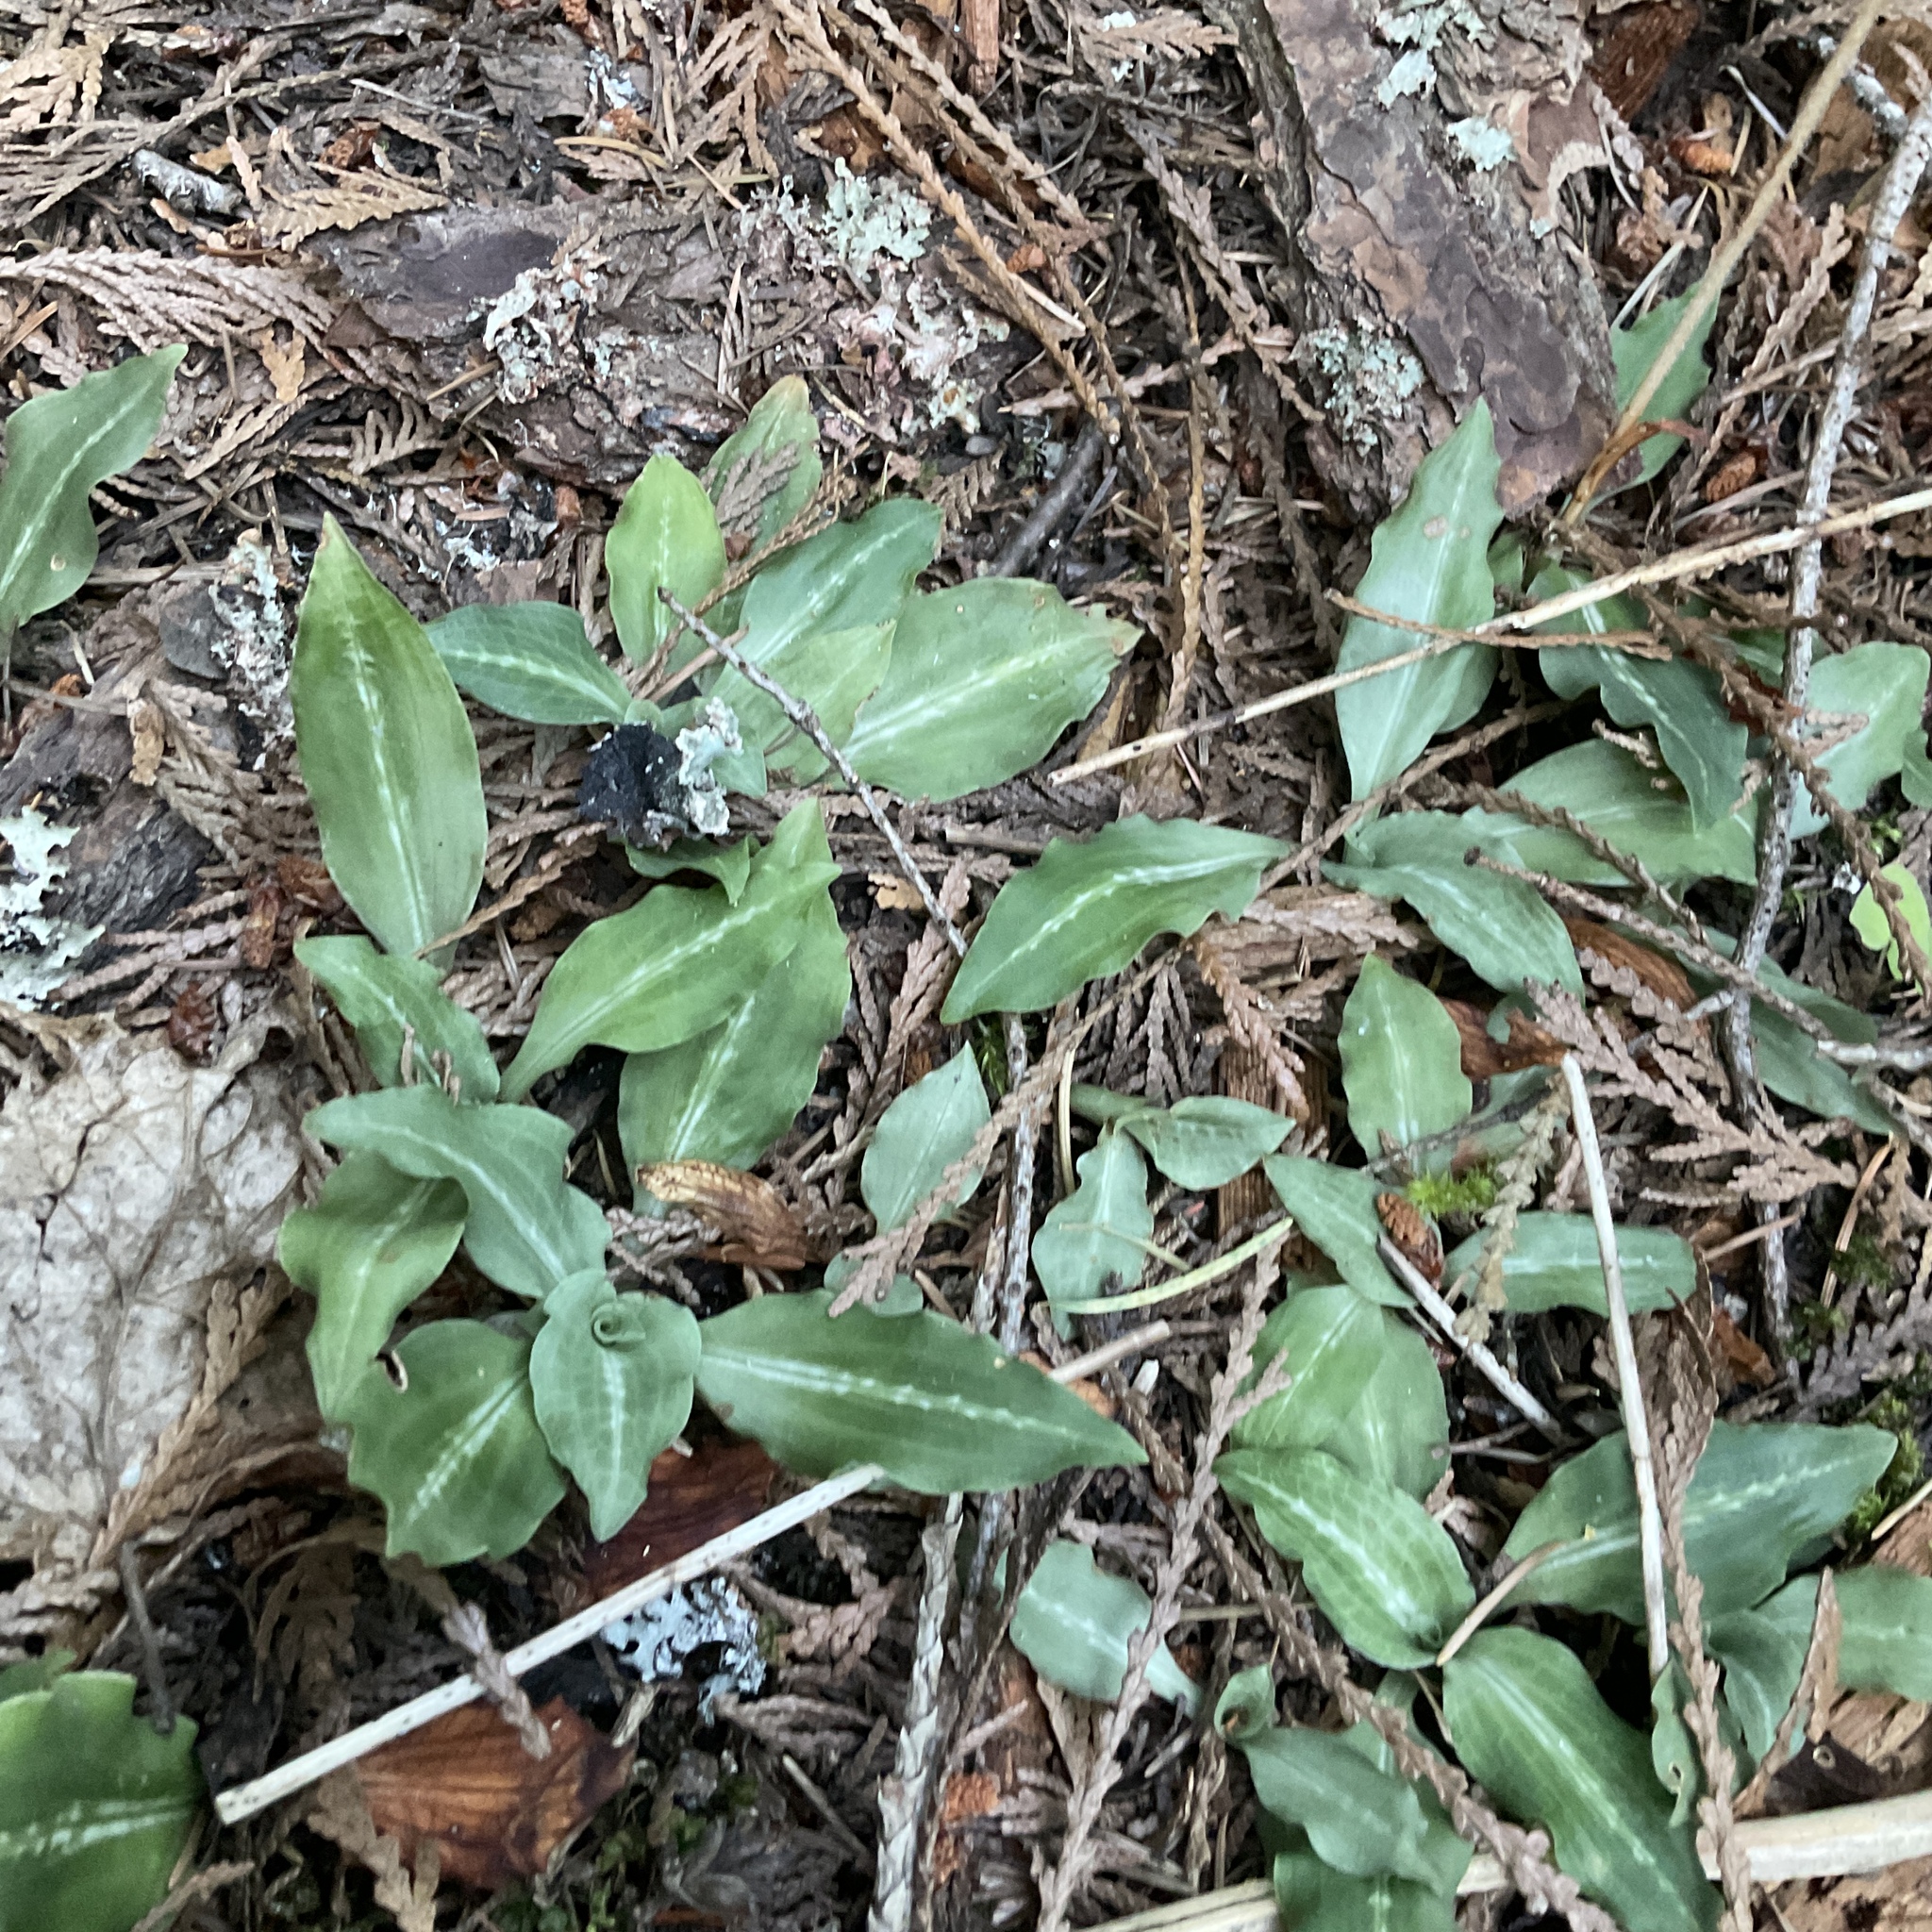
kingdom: Plantae
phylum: Tracheophyta
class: Liliopsida
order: Asparagales
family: Orchidaceae
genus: Goodyera
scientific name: Goodyera oblongifolia
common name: Giant rattlesnake-plantain
